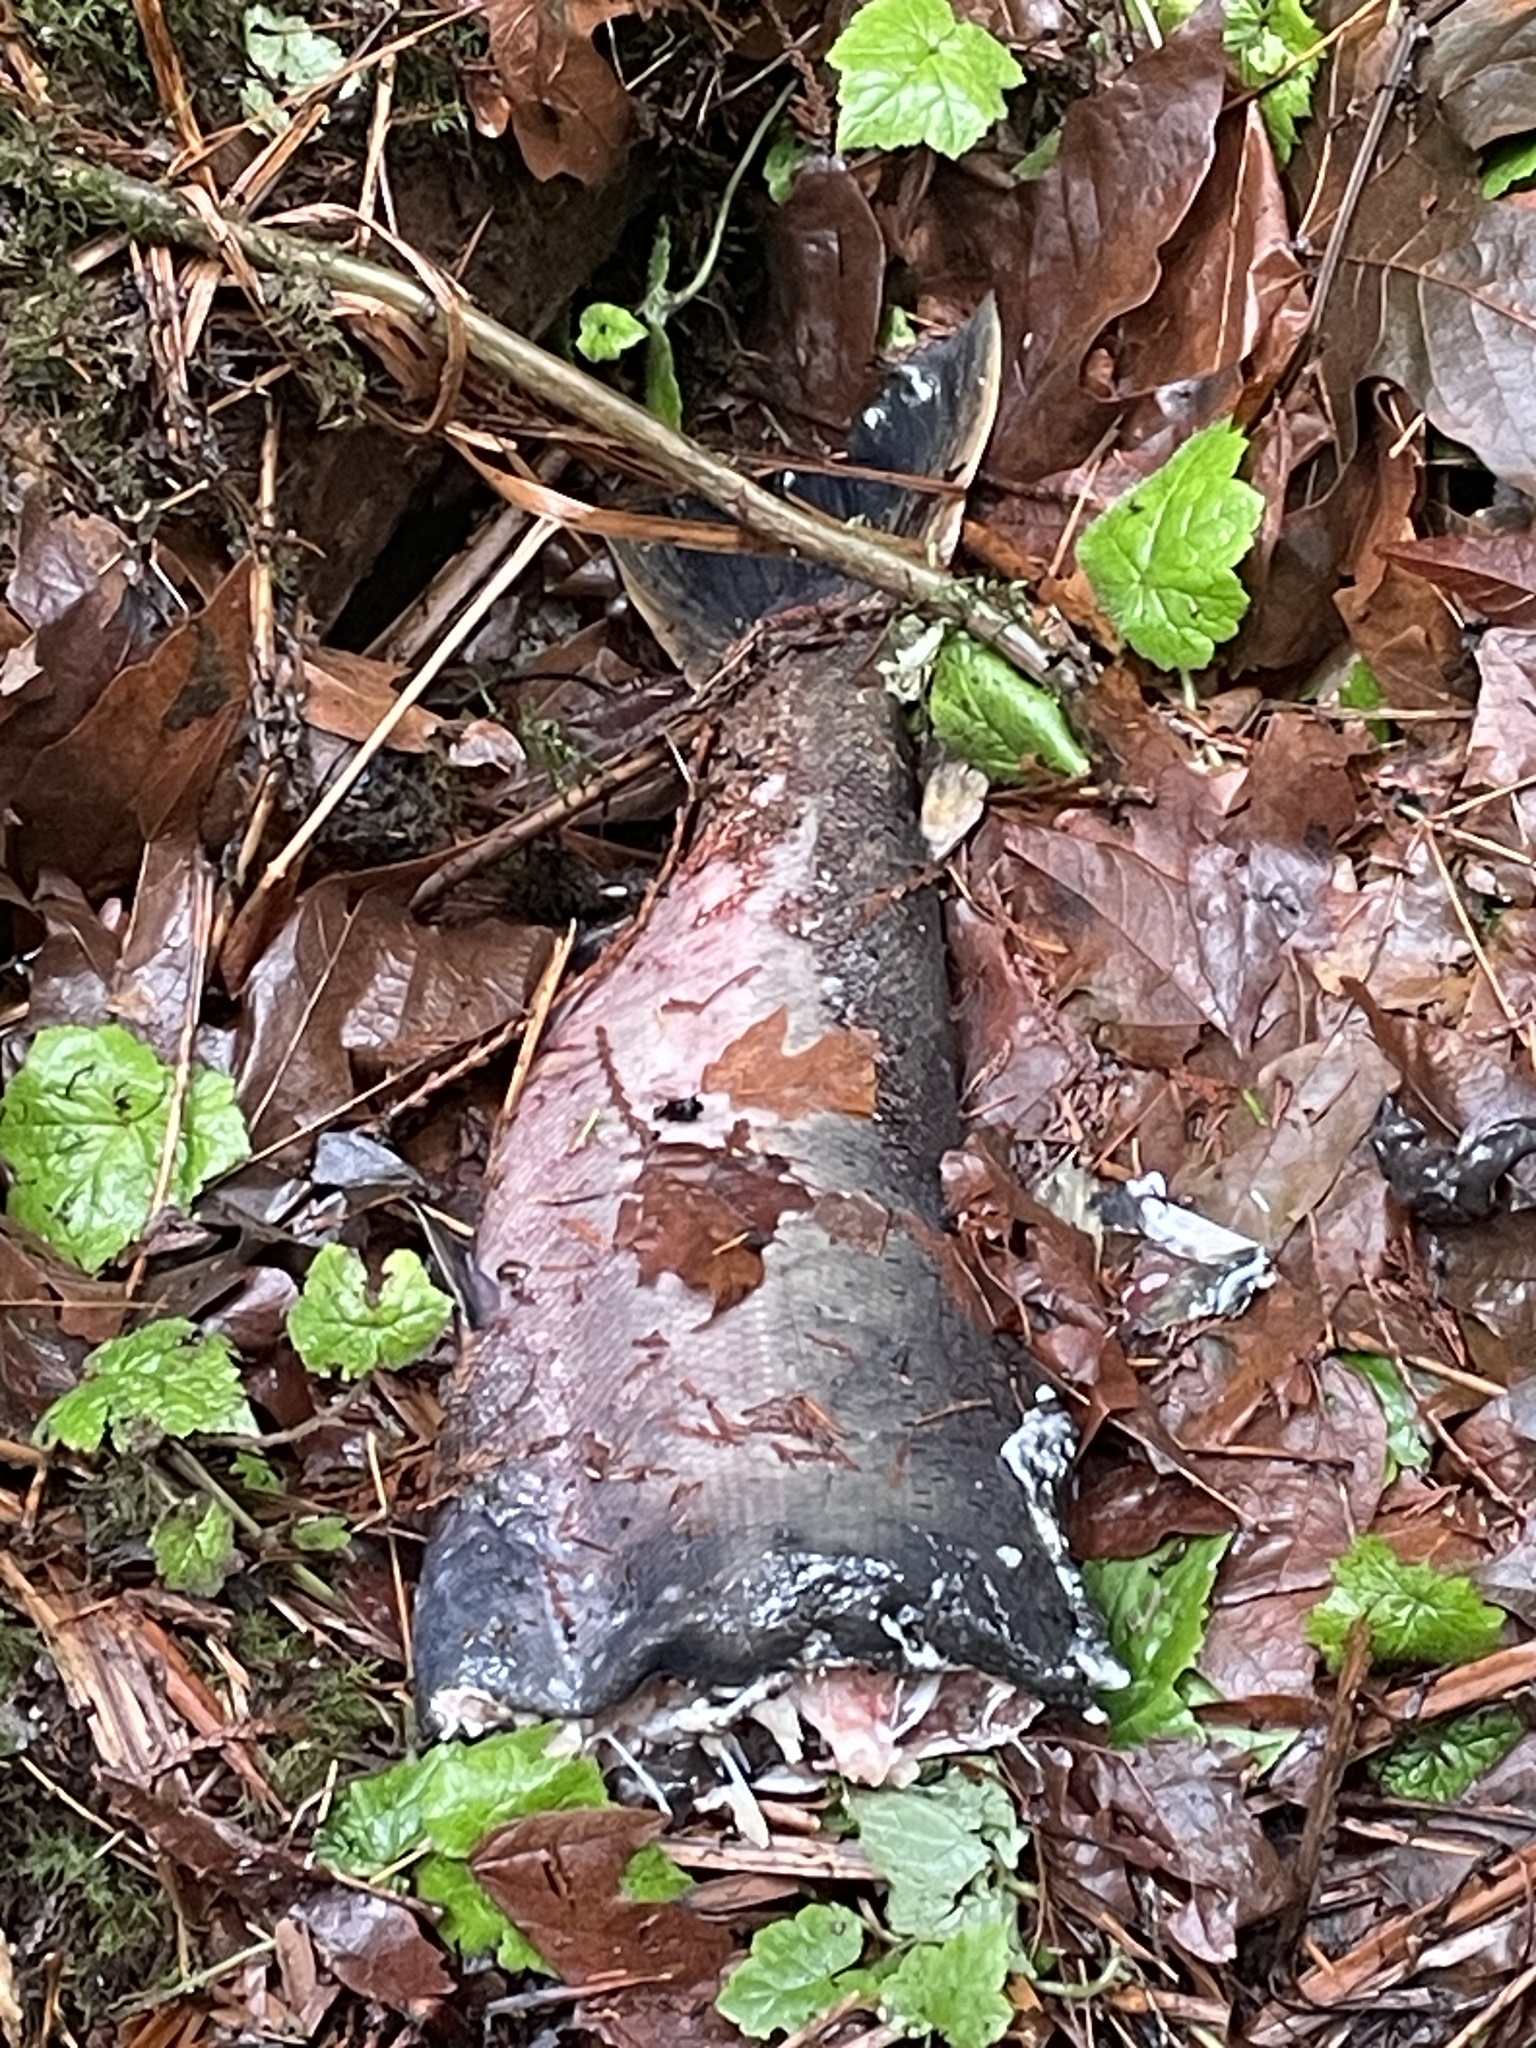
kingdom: Animalia
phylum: Chordata
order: Salmoniformes
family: Salmonidae
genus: Oncorhynchus
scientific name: Oncorhynchus kisutch
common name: Coho salmon
